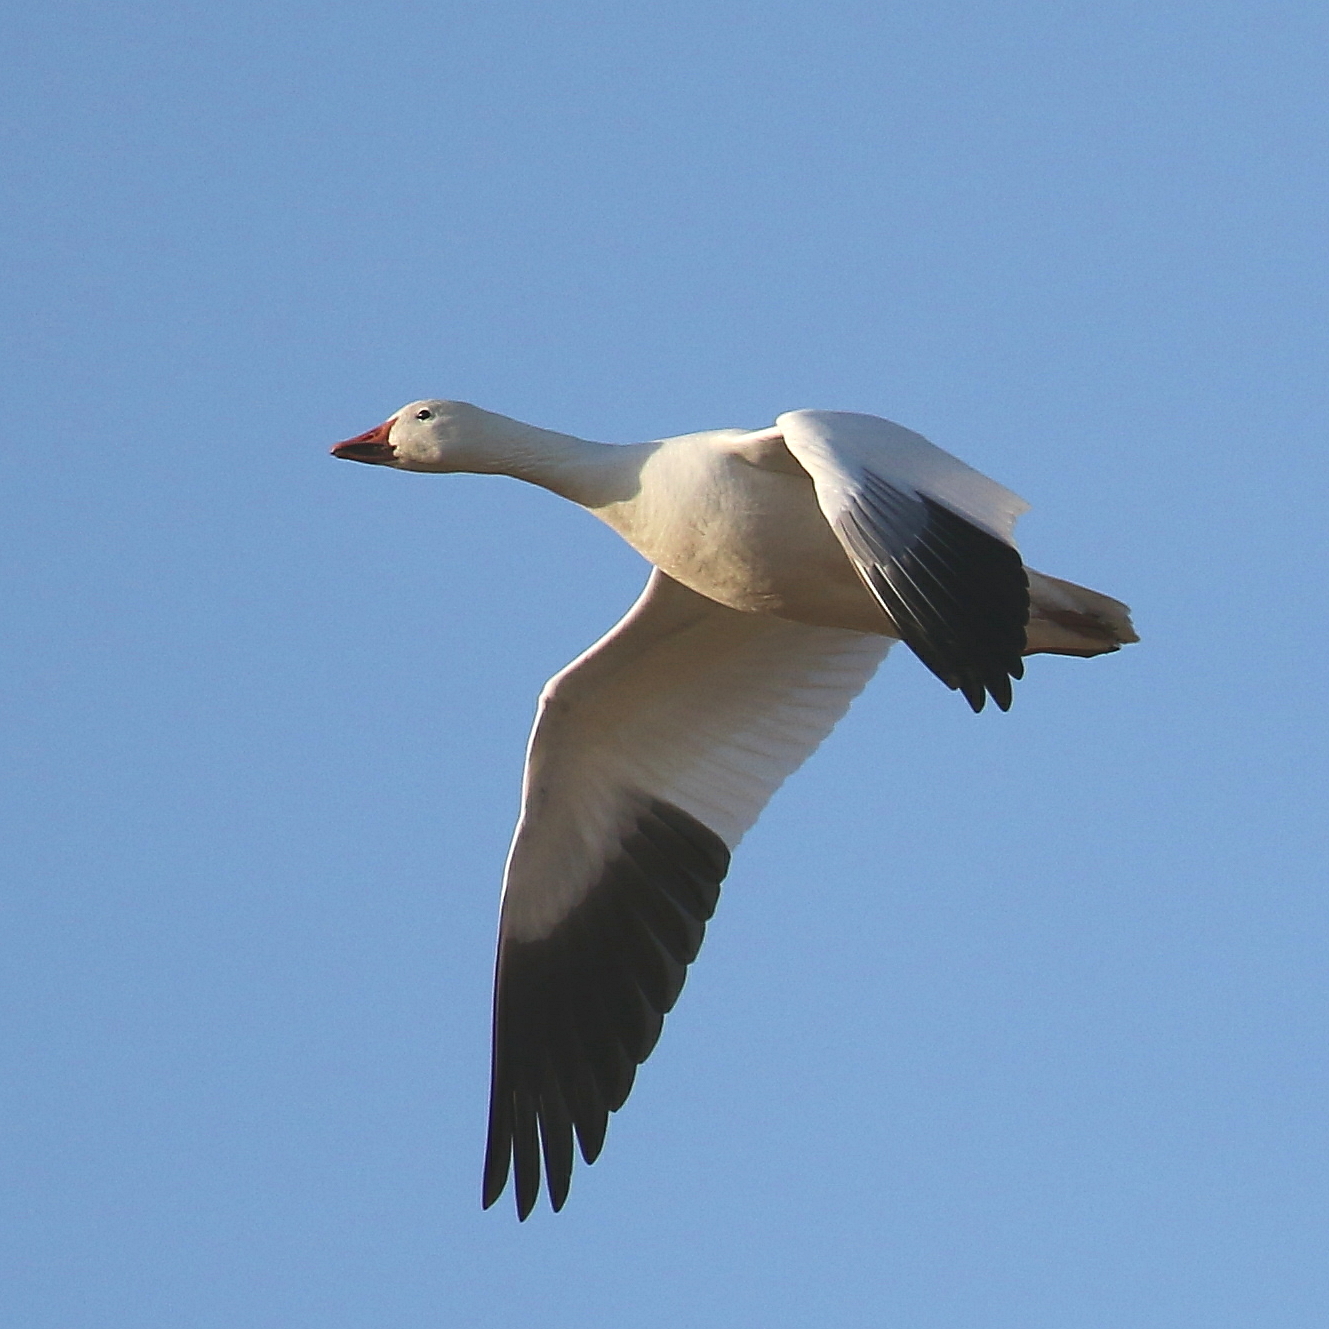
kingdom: Animalia
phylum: Chordata
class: Aves
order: Anseriformes
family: Anatidae
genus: Anser
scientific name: Anser caerulescens
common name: Snow goose
